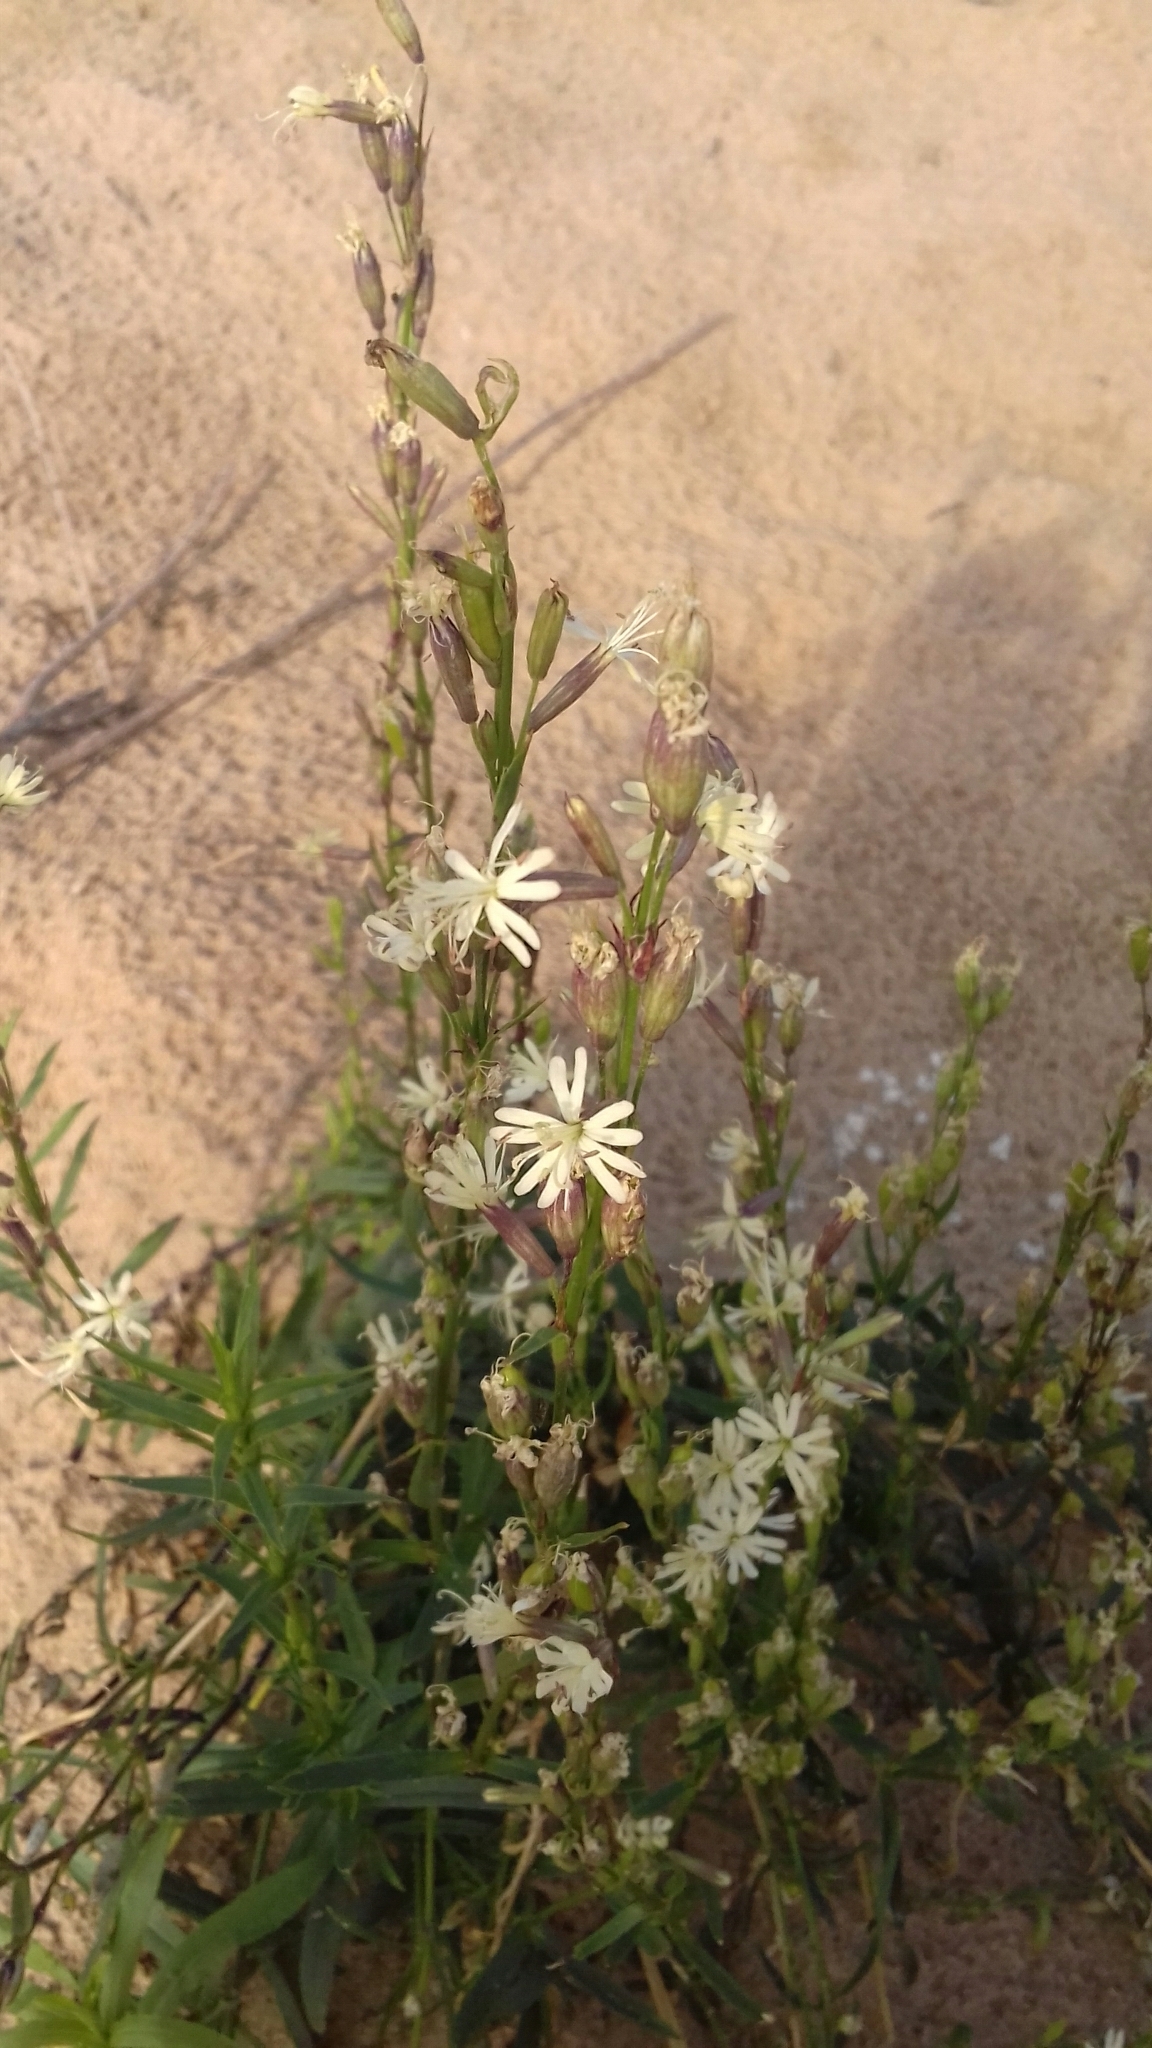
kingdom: Plantae
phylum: Tracheophyta
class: Magnoliopsida
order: Caryophyllales
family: Caryophyllaceae
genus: Silene
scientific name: Silene tatarica
